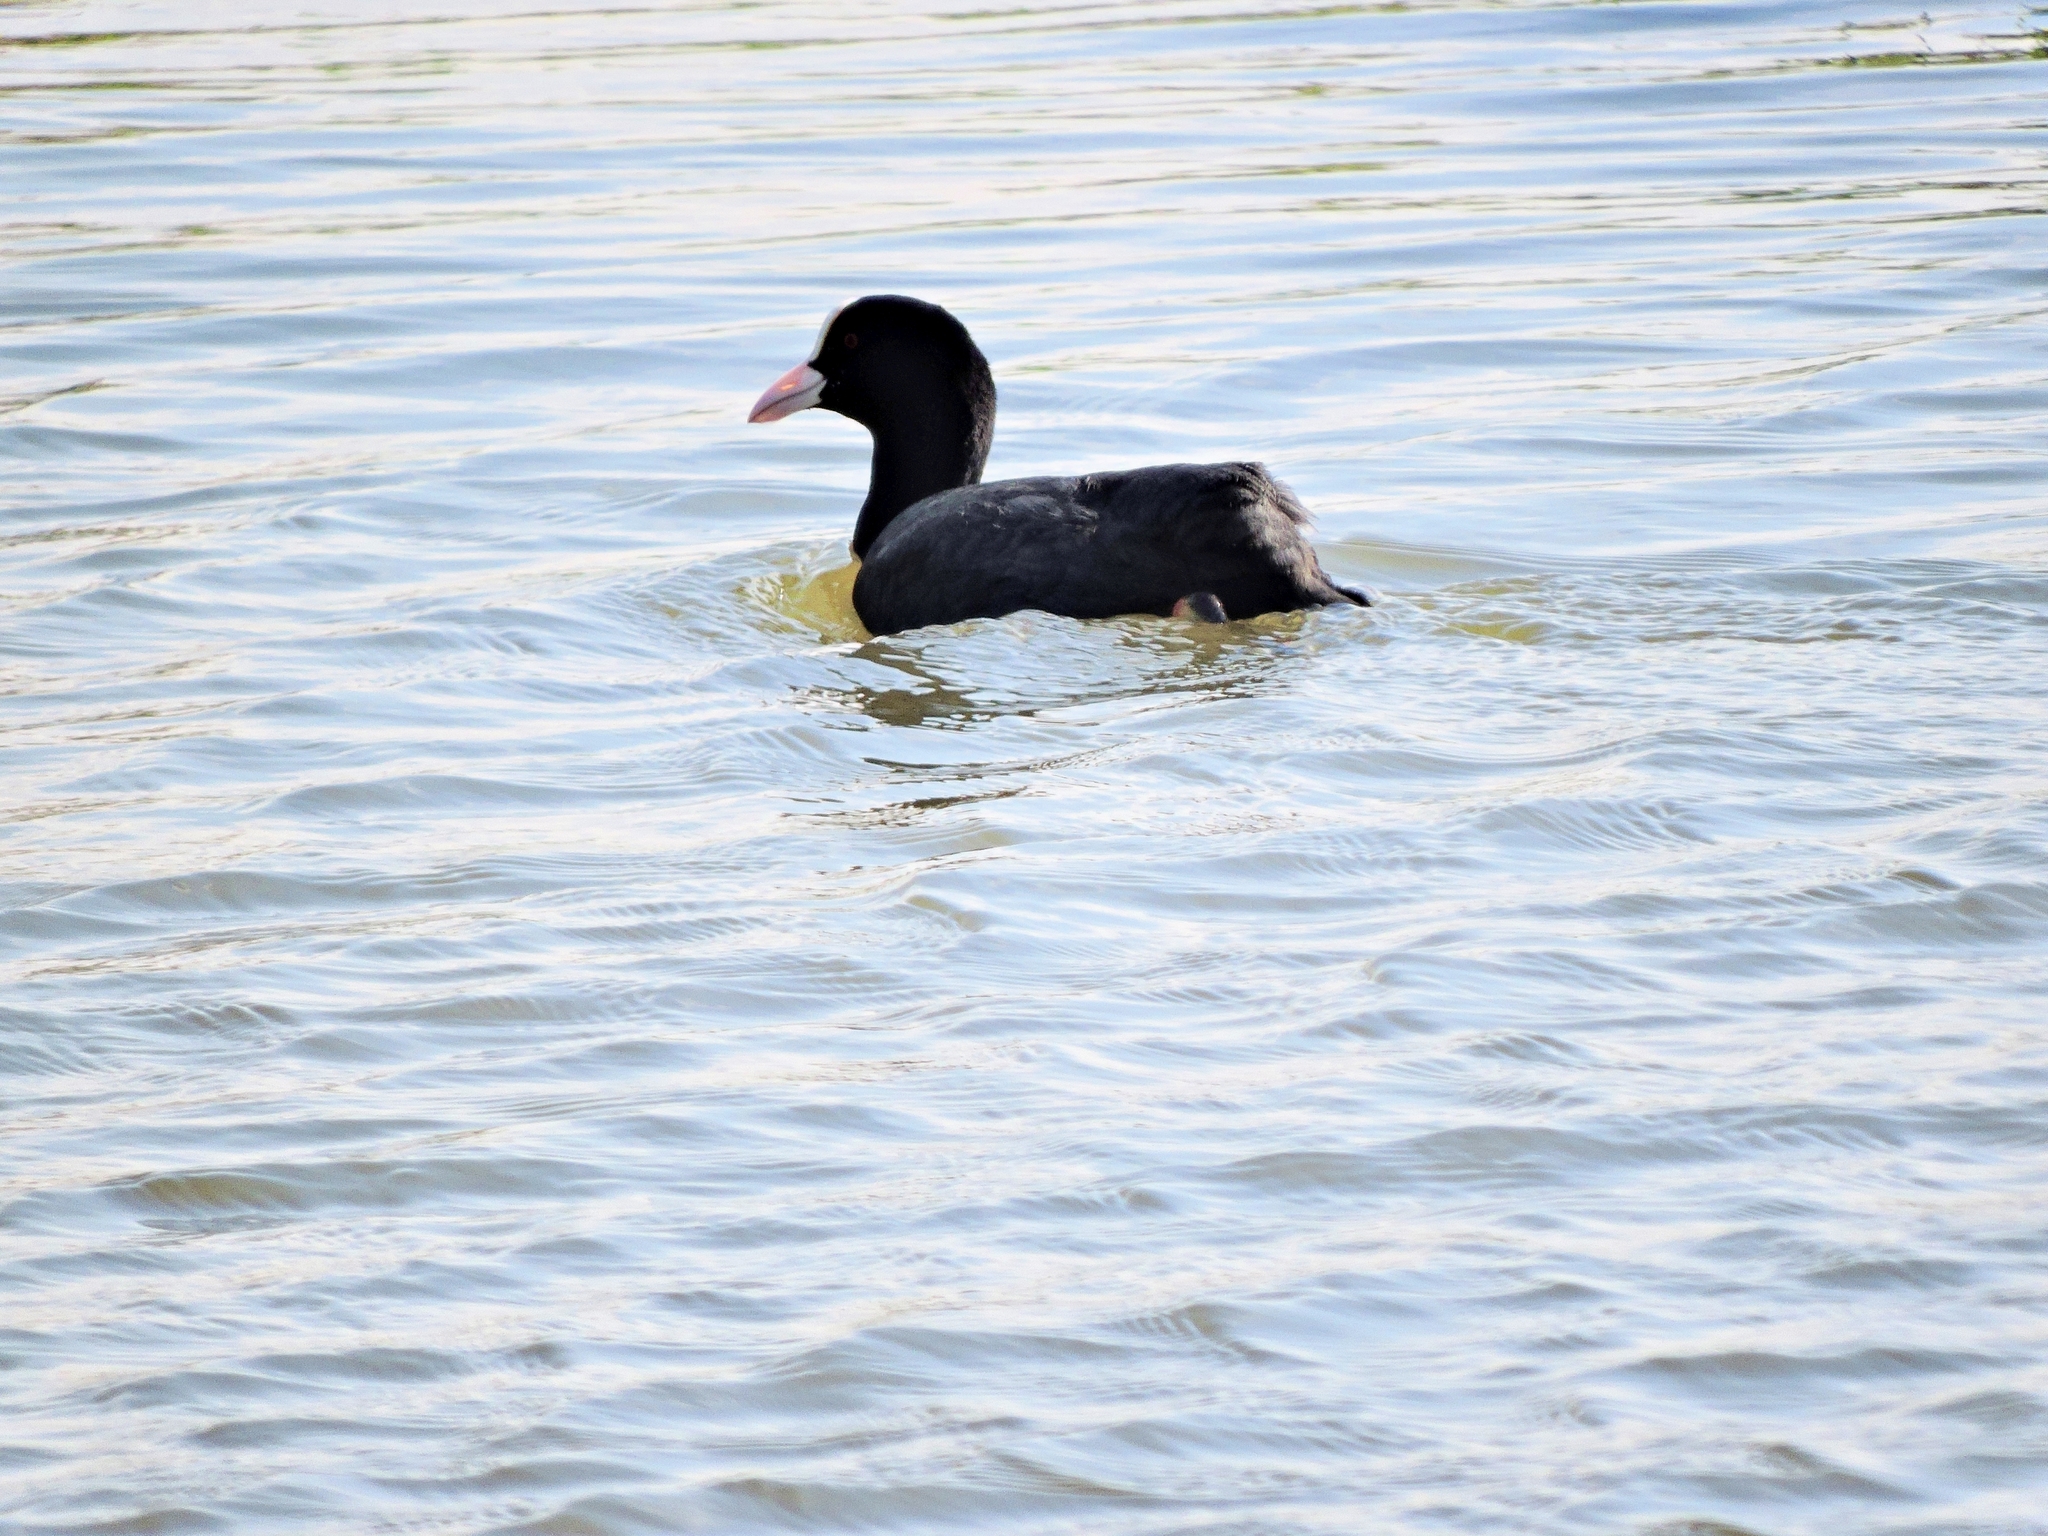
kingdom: Animalia
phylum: Chordata
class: Aves
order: Gruiformes
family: Rallidae
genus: Fulica
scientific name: Fulica atra
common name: Eurasian coot
